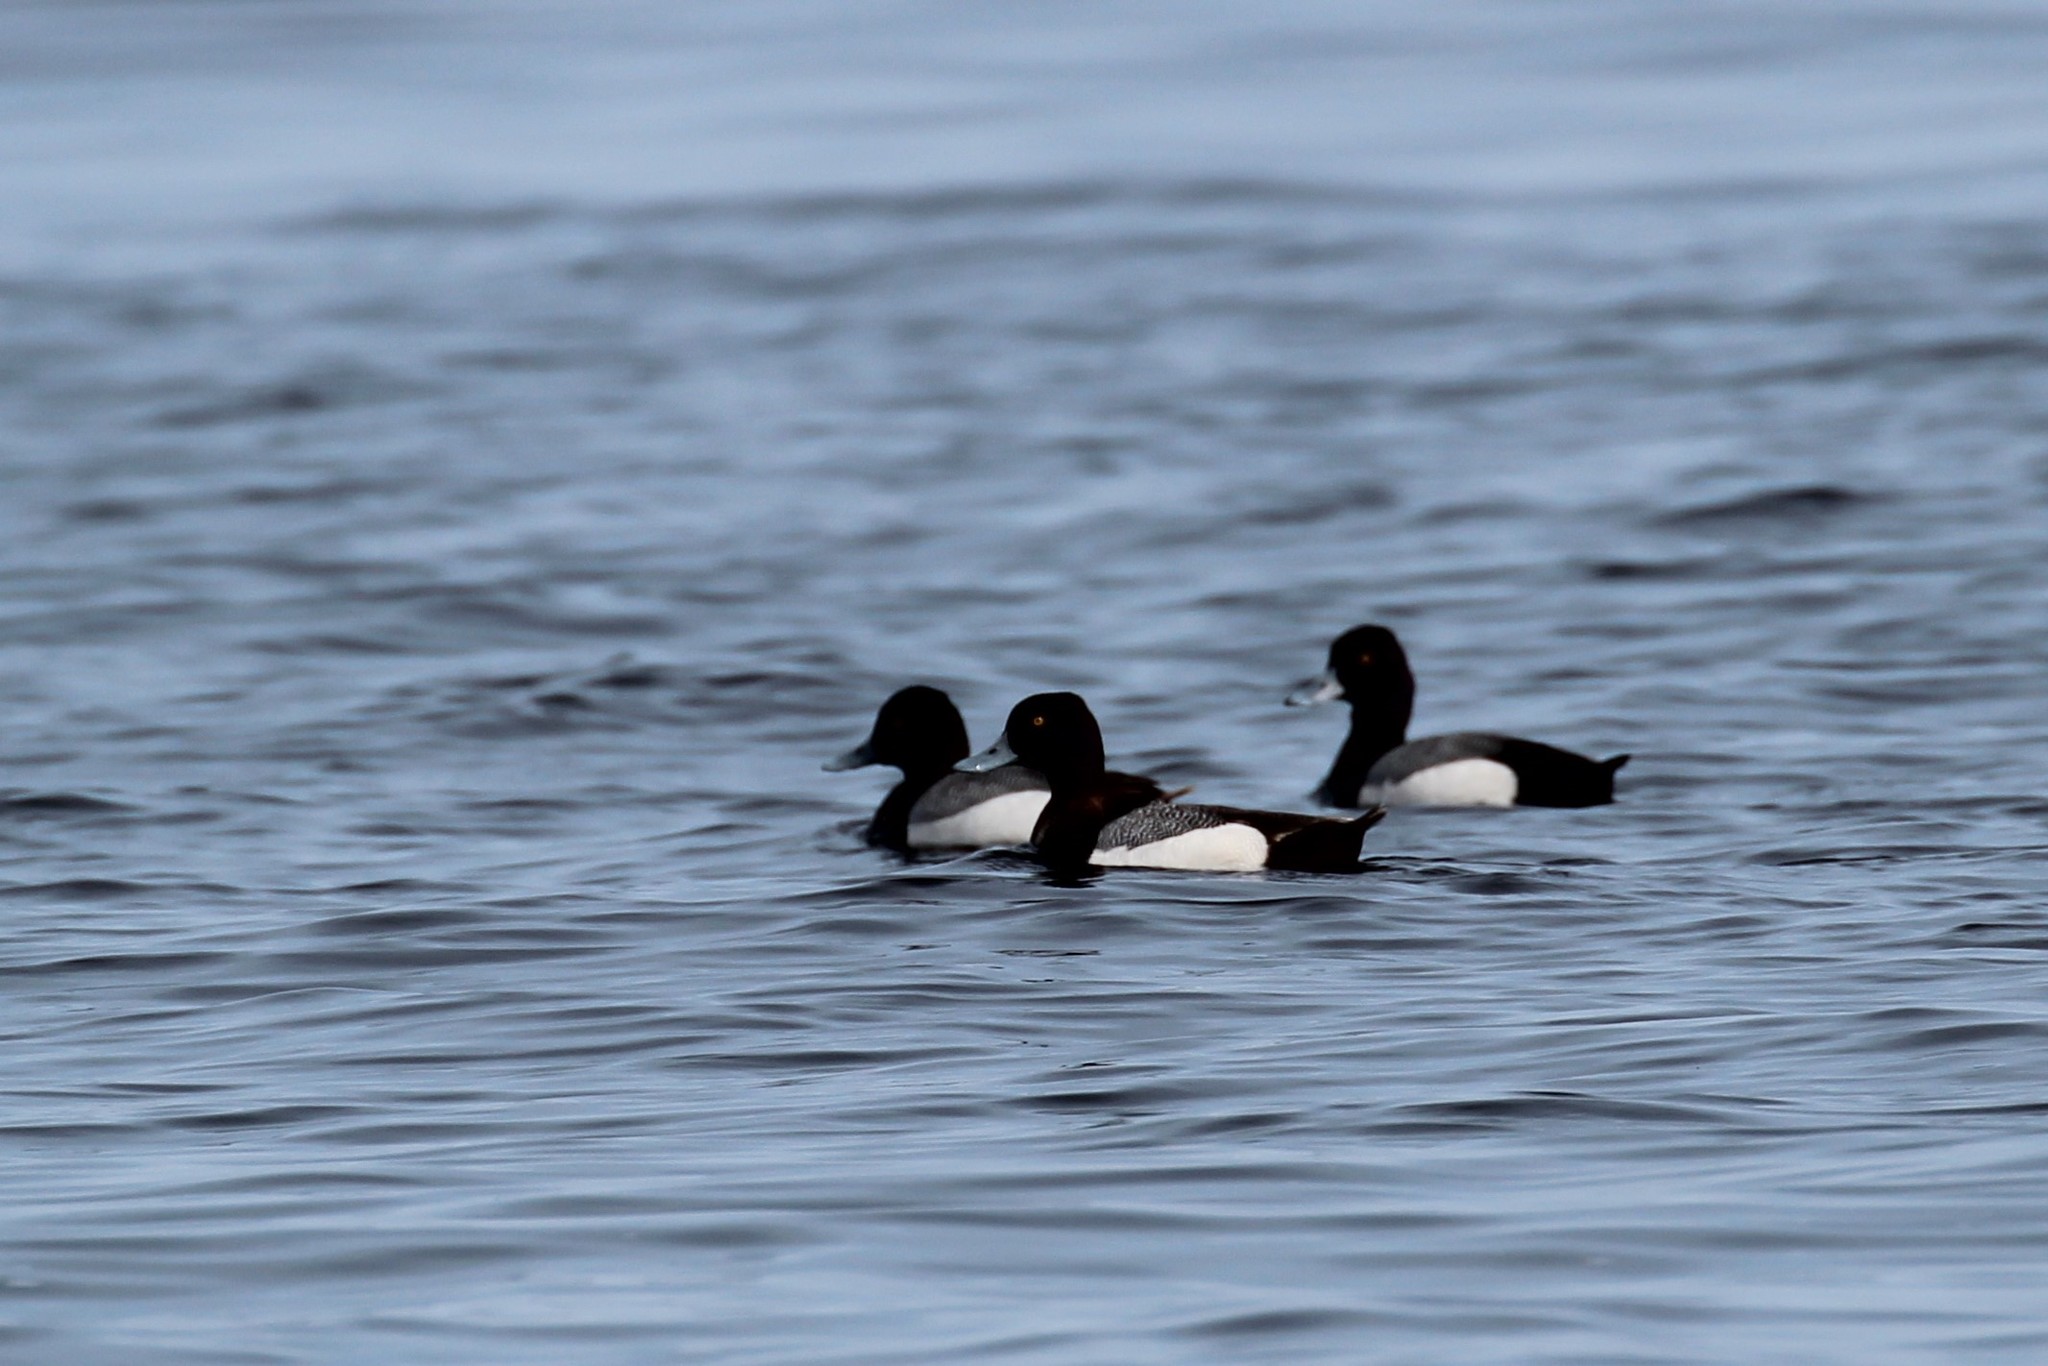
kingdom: Animalia
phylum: Chordata
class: Aves
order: Anseriformes
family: Anatidae
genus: Aythya
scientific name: Aythya affinis
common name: Lesser scaup
